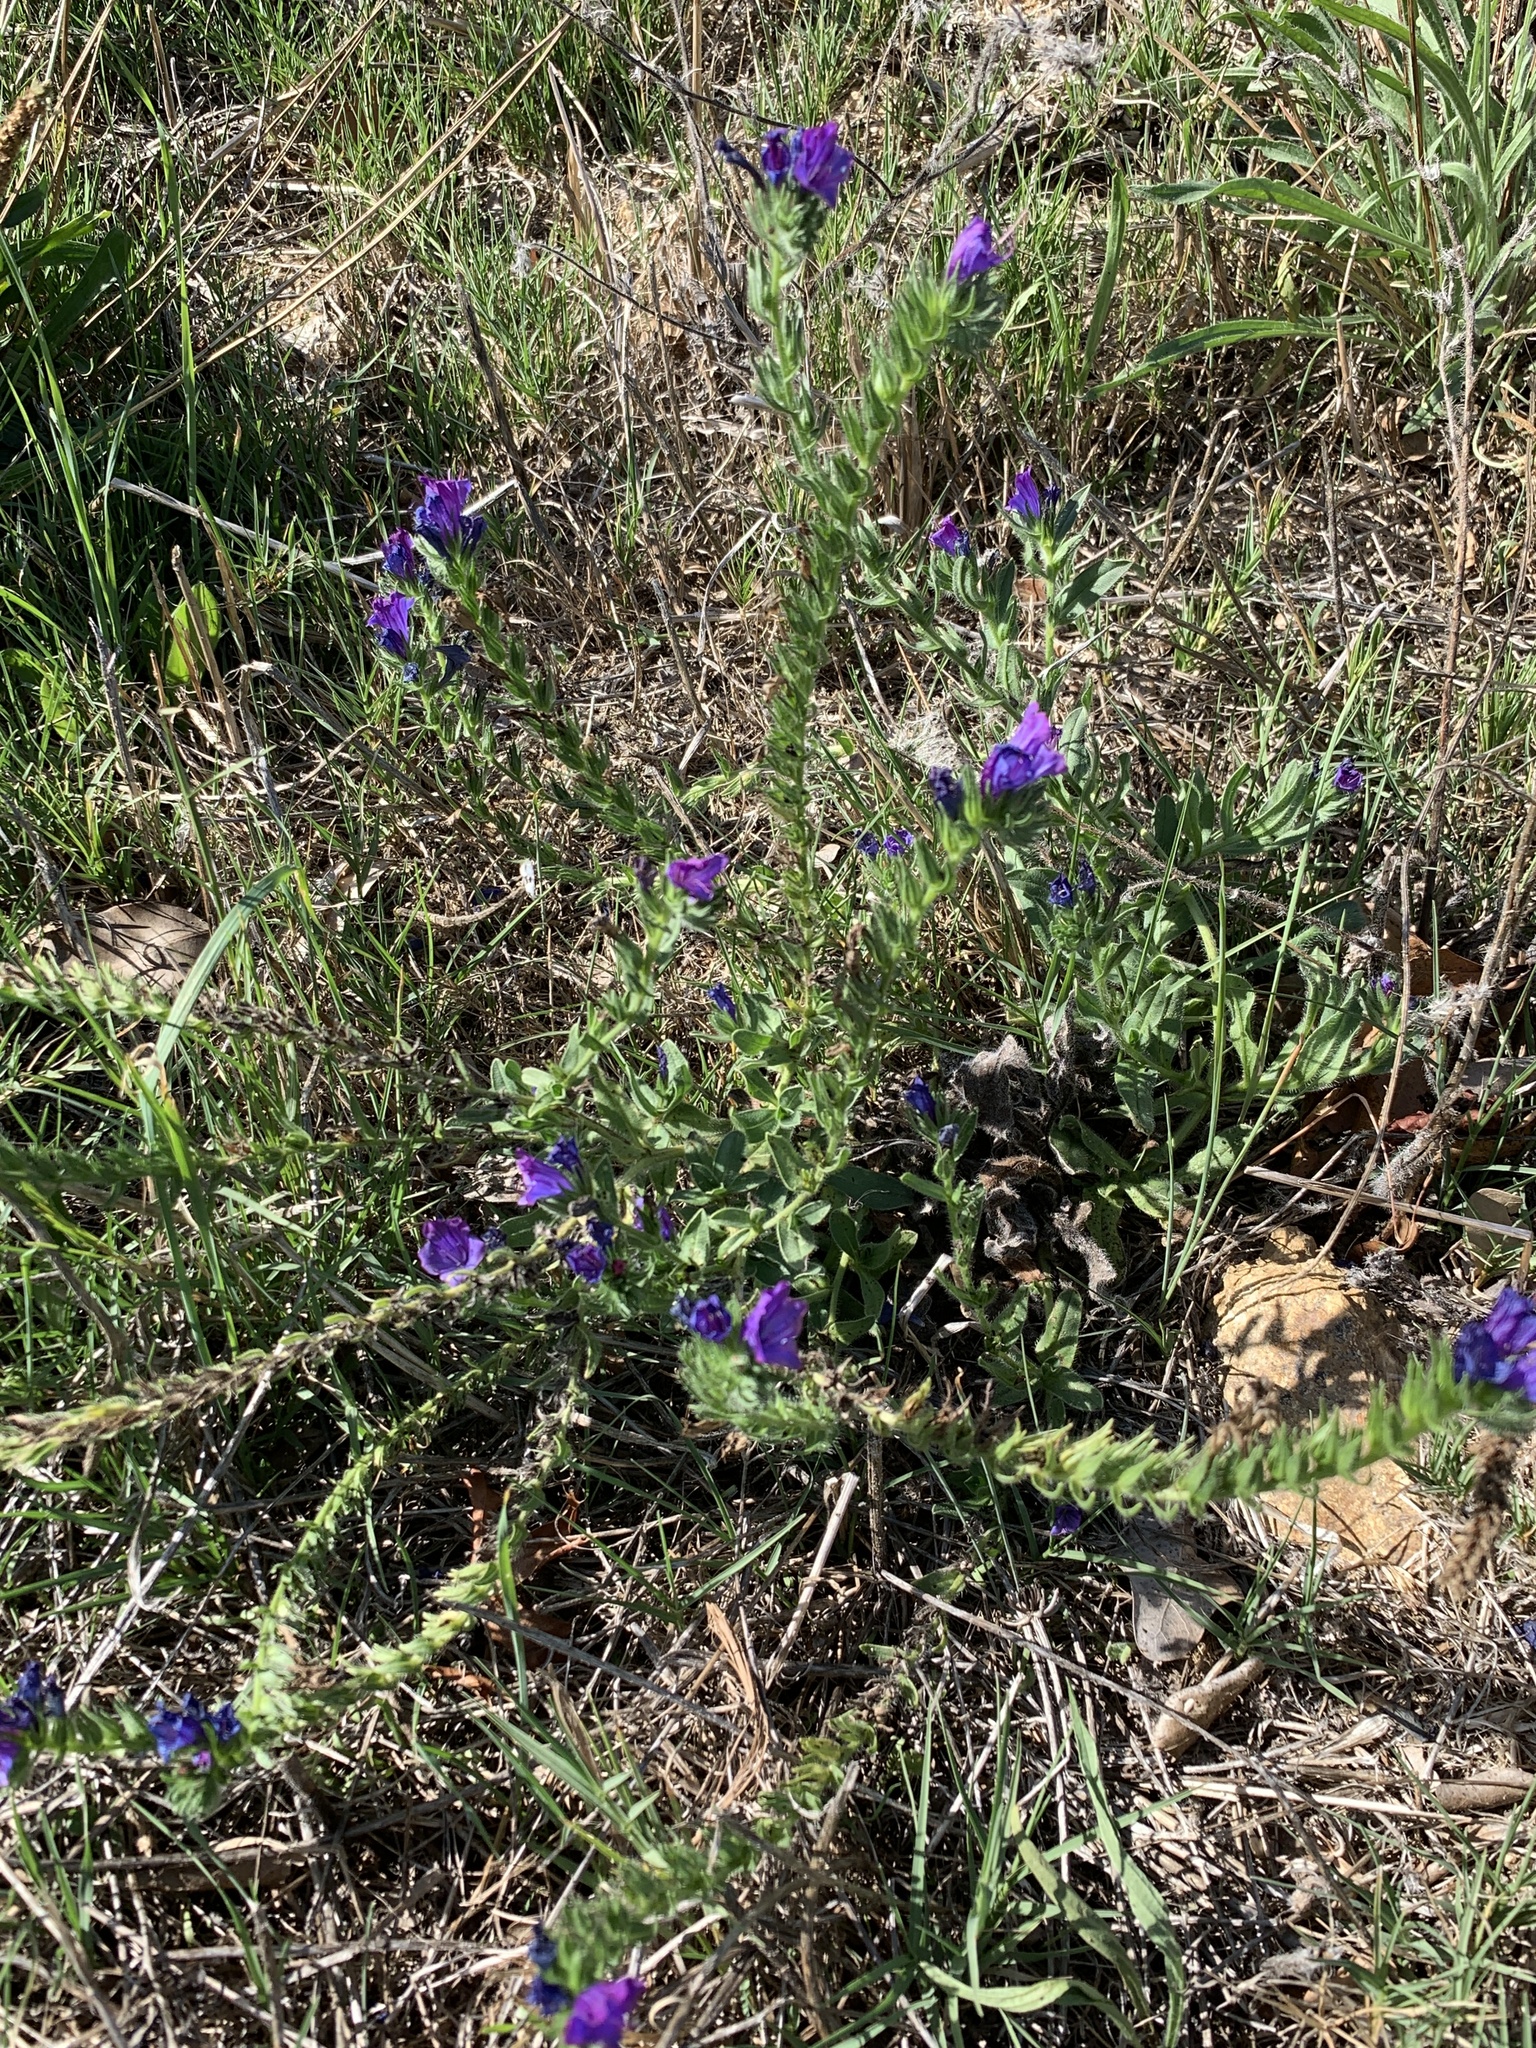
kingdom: Plantae
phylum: Tracheophyta
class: Magnoliopsida
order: Boraginales
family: Boraginaceae
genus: Echium
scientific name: Echium plantagineum
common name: Purple viper's-bugloss
